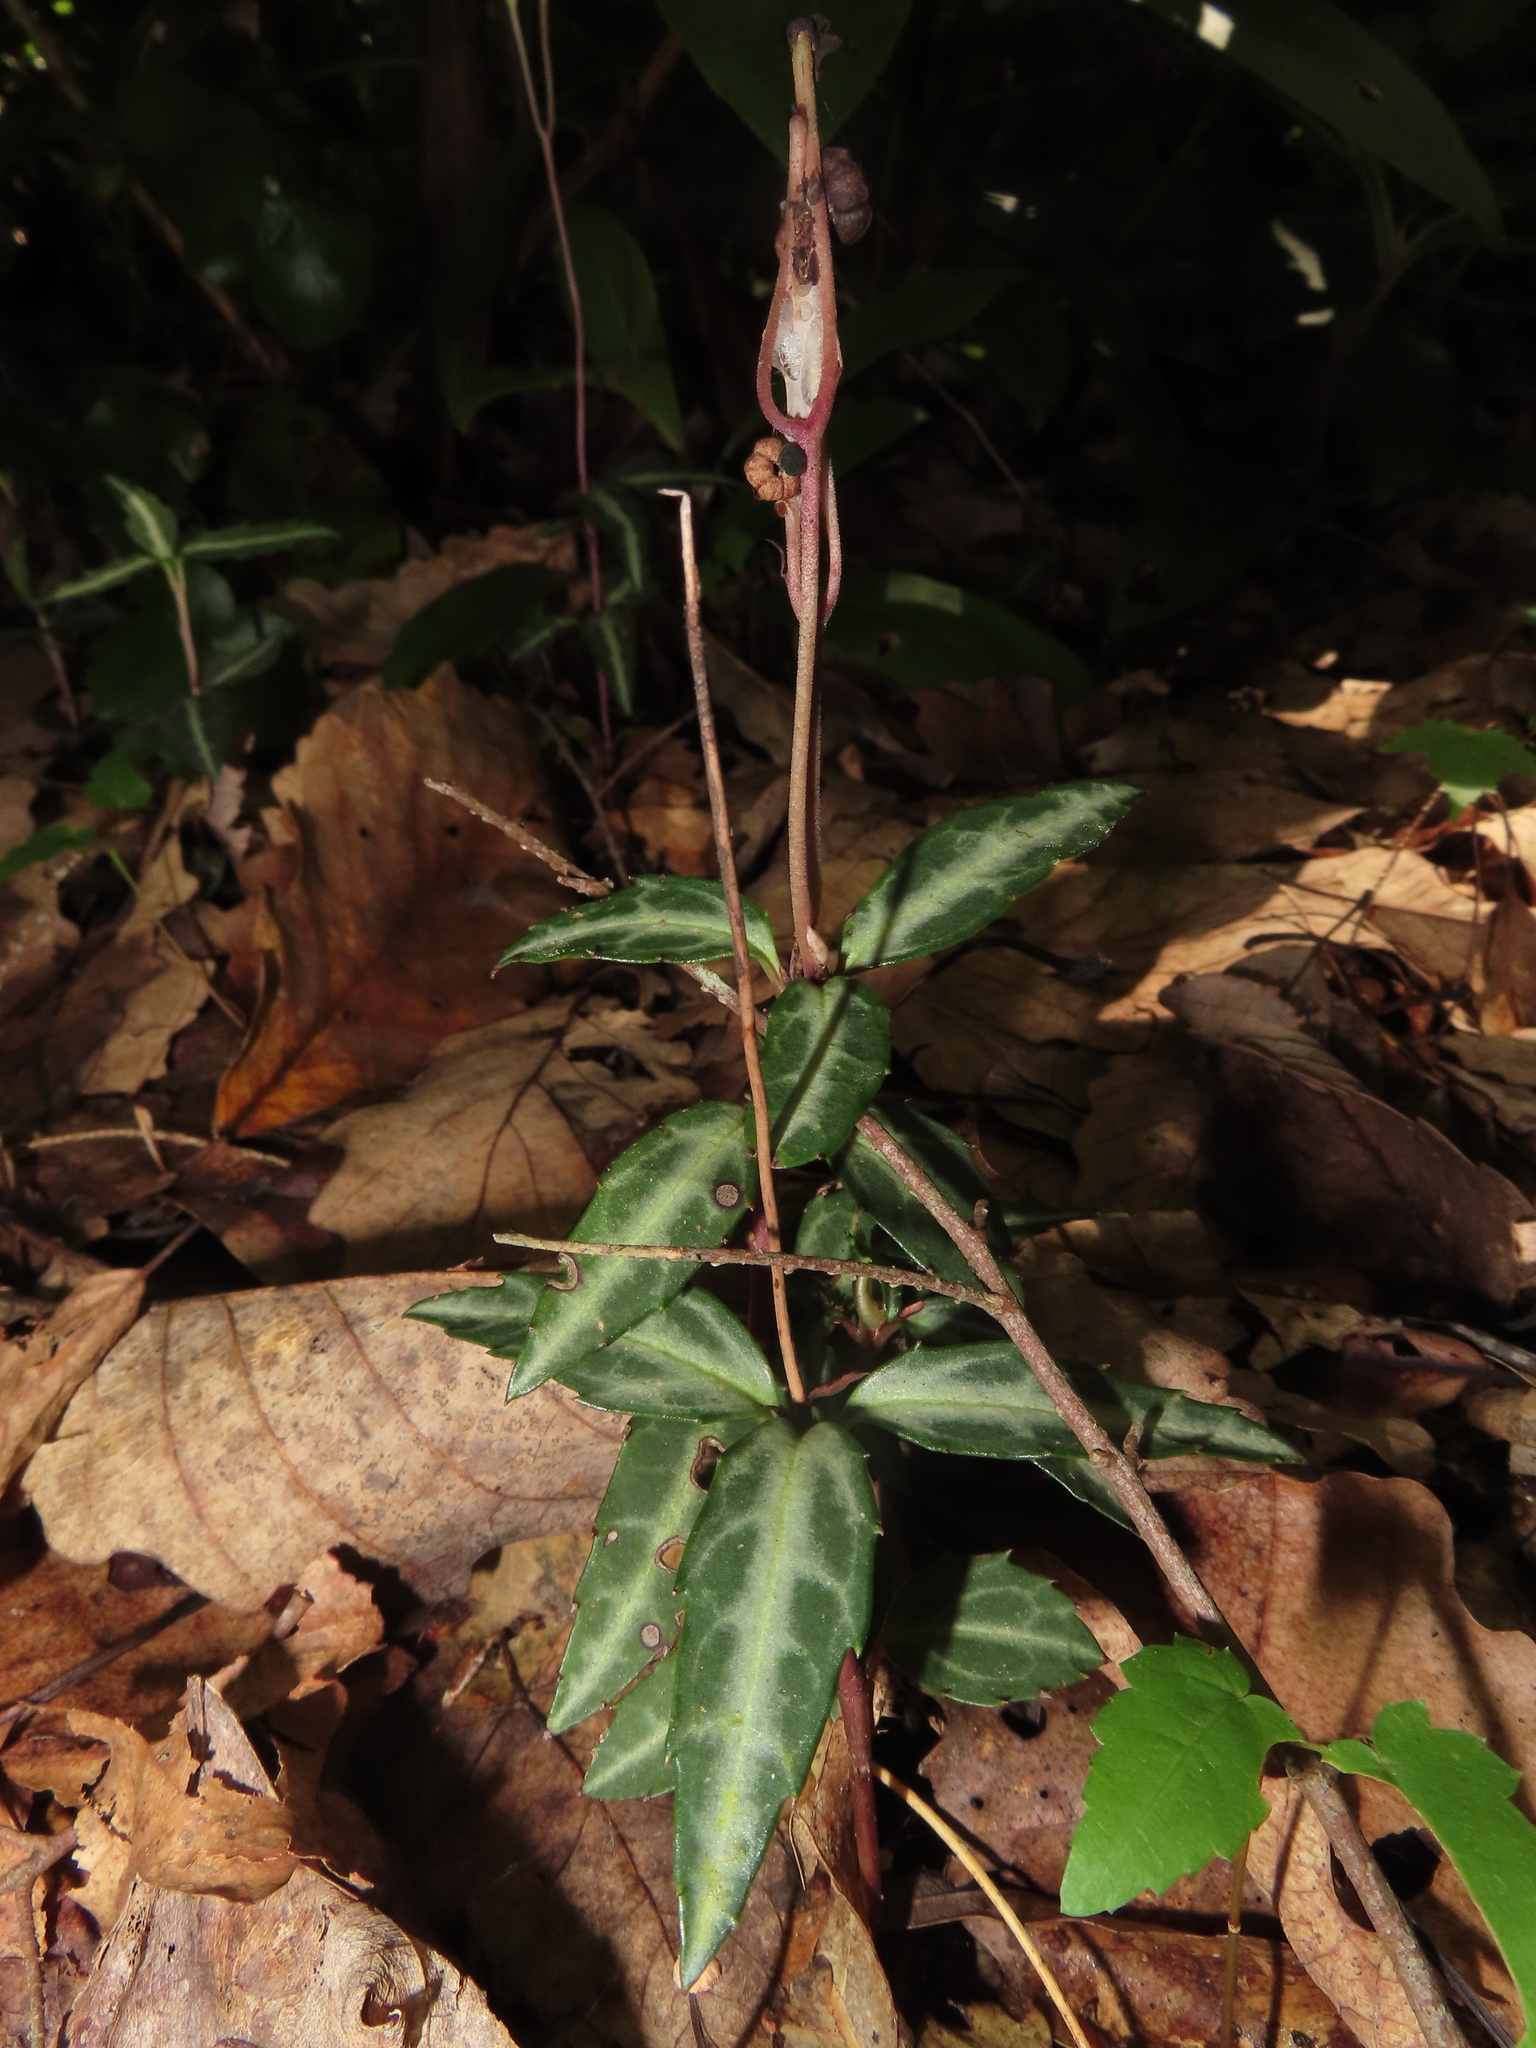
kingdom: Plantae
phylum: Tracheophyta
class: Magnoliopsida
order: Ericales
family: Ericaceae
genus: Chimaphila
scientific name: Chimaphila maculata
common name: Spotted pipsissewa
